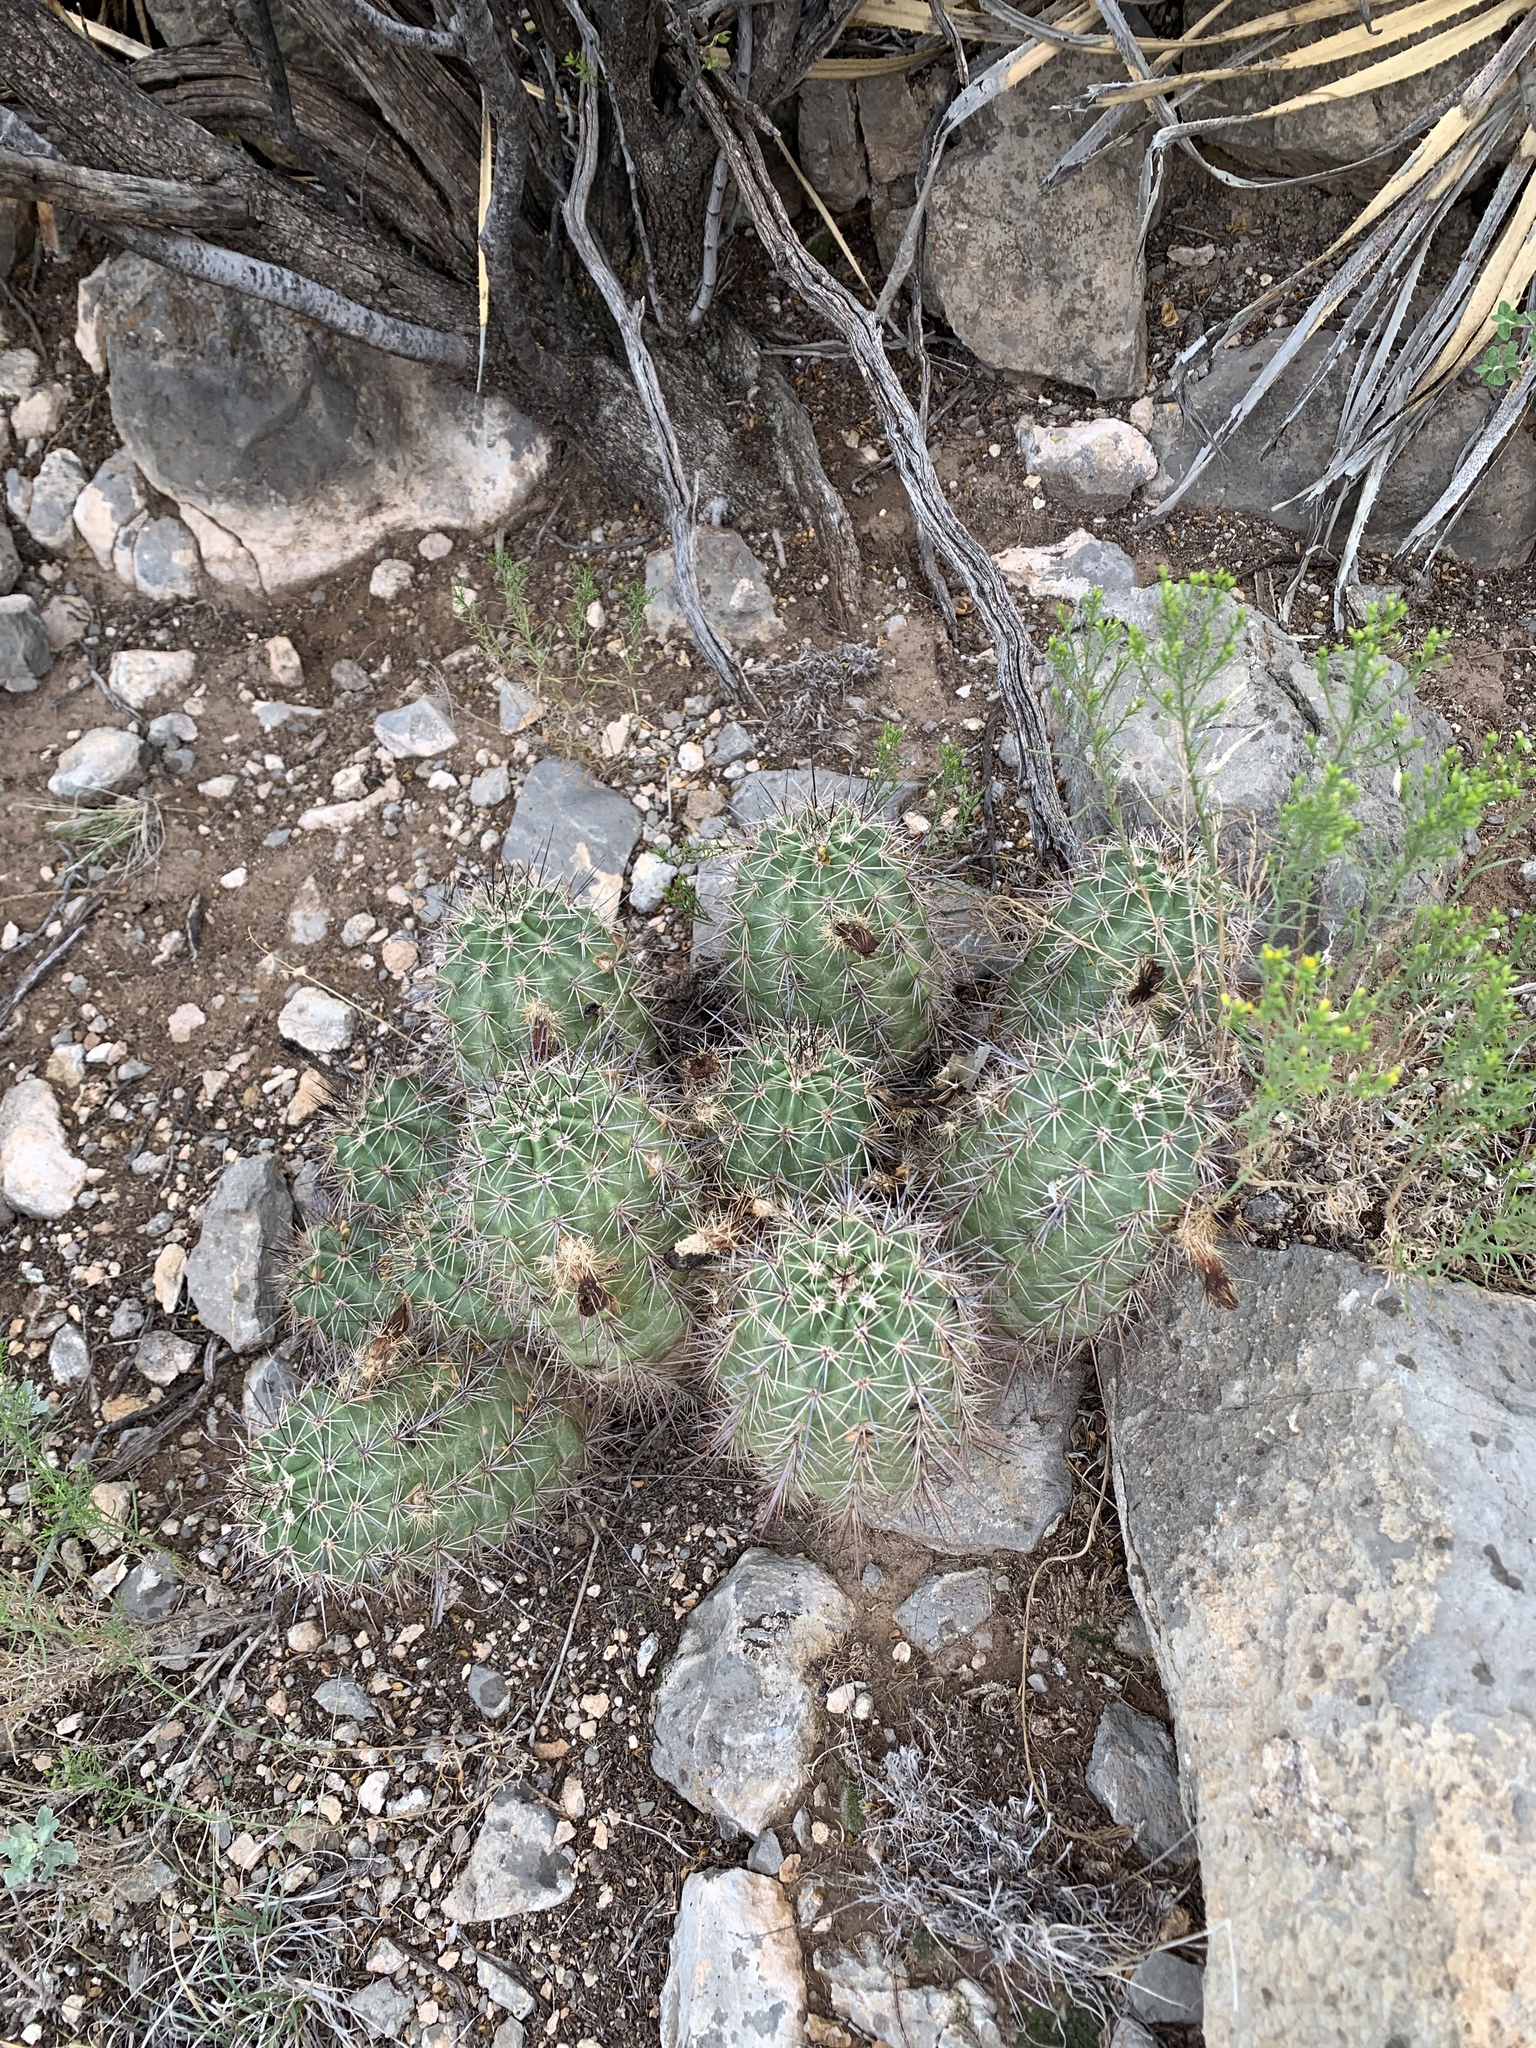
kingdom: Plantae
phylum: Tracheophyta
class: Magnoliopsida
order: Caryophyllales
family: Cactaceae
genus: Echinocereus
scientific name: Echinocereus coccineus
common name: Scarlet hedgehog cactus
